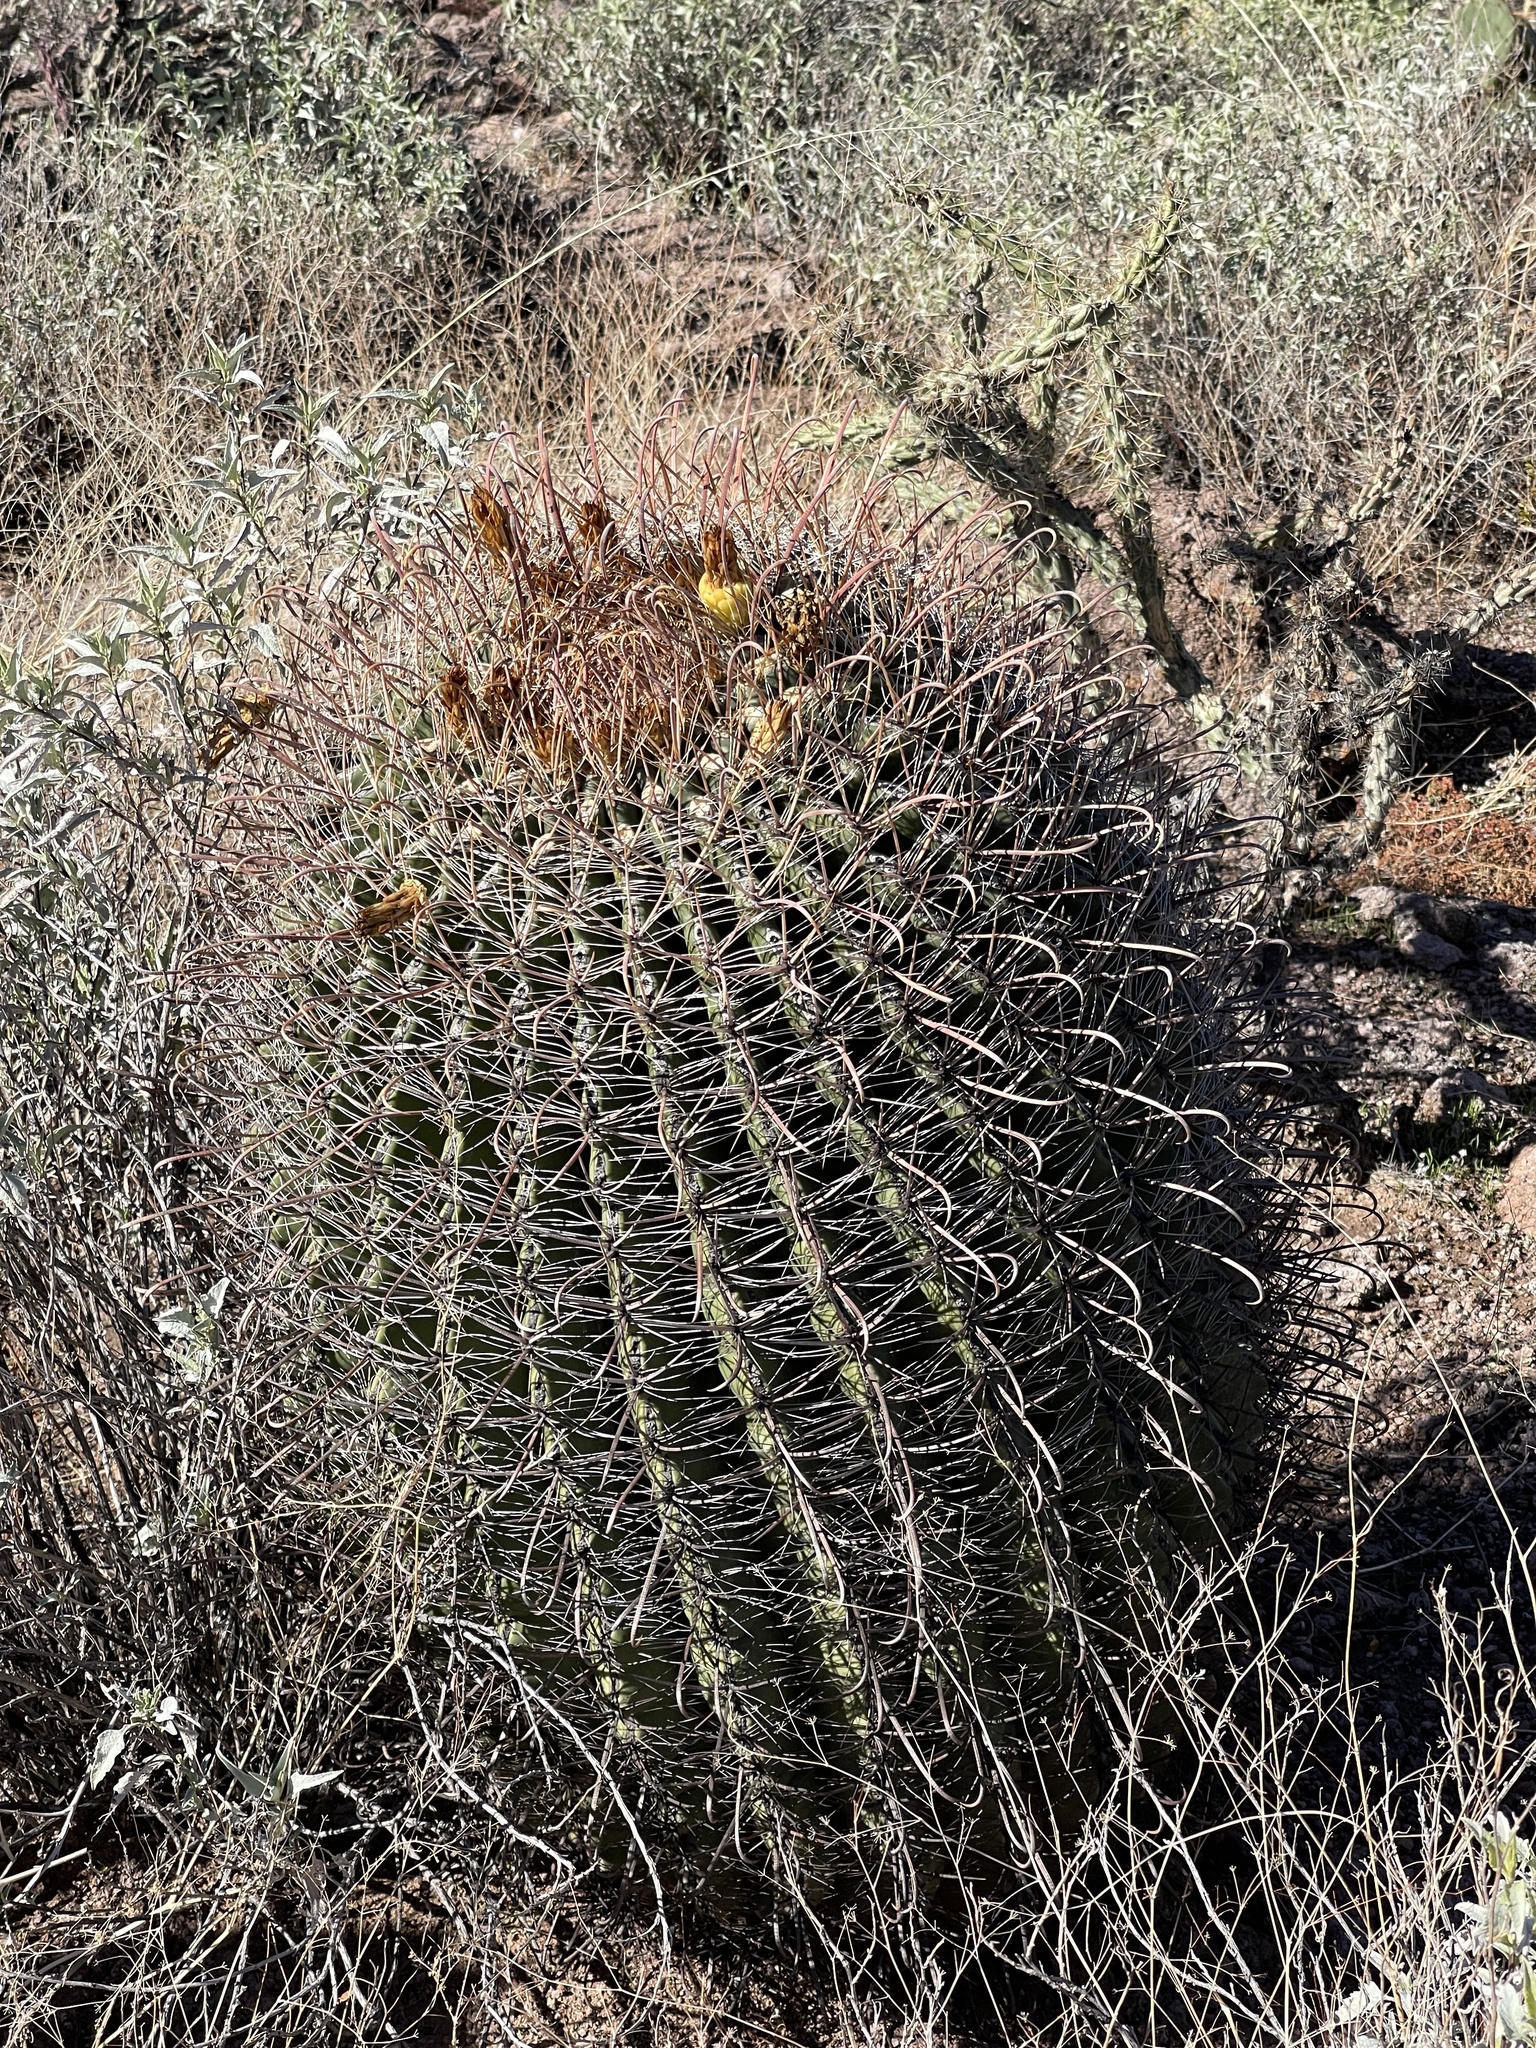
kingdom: Plantae
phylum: Tracheophyta
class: Magnoliopsida
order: Caryophyllales
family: Cactaceae
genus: Ferocactus
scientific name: Ferocactus wislizeni
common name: Candy barrel cactus
